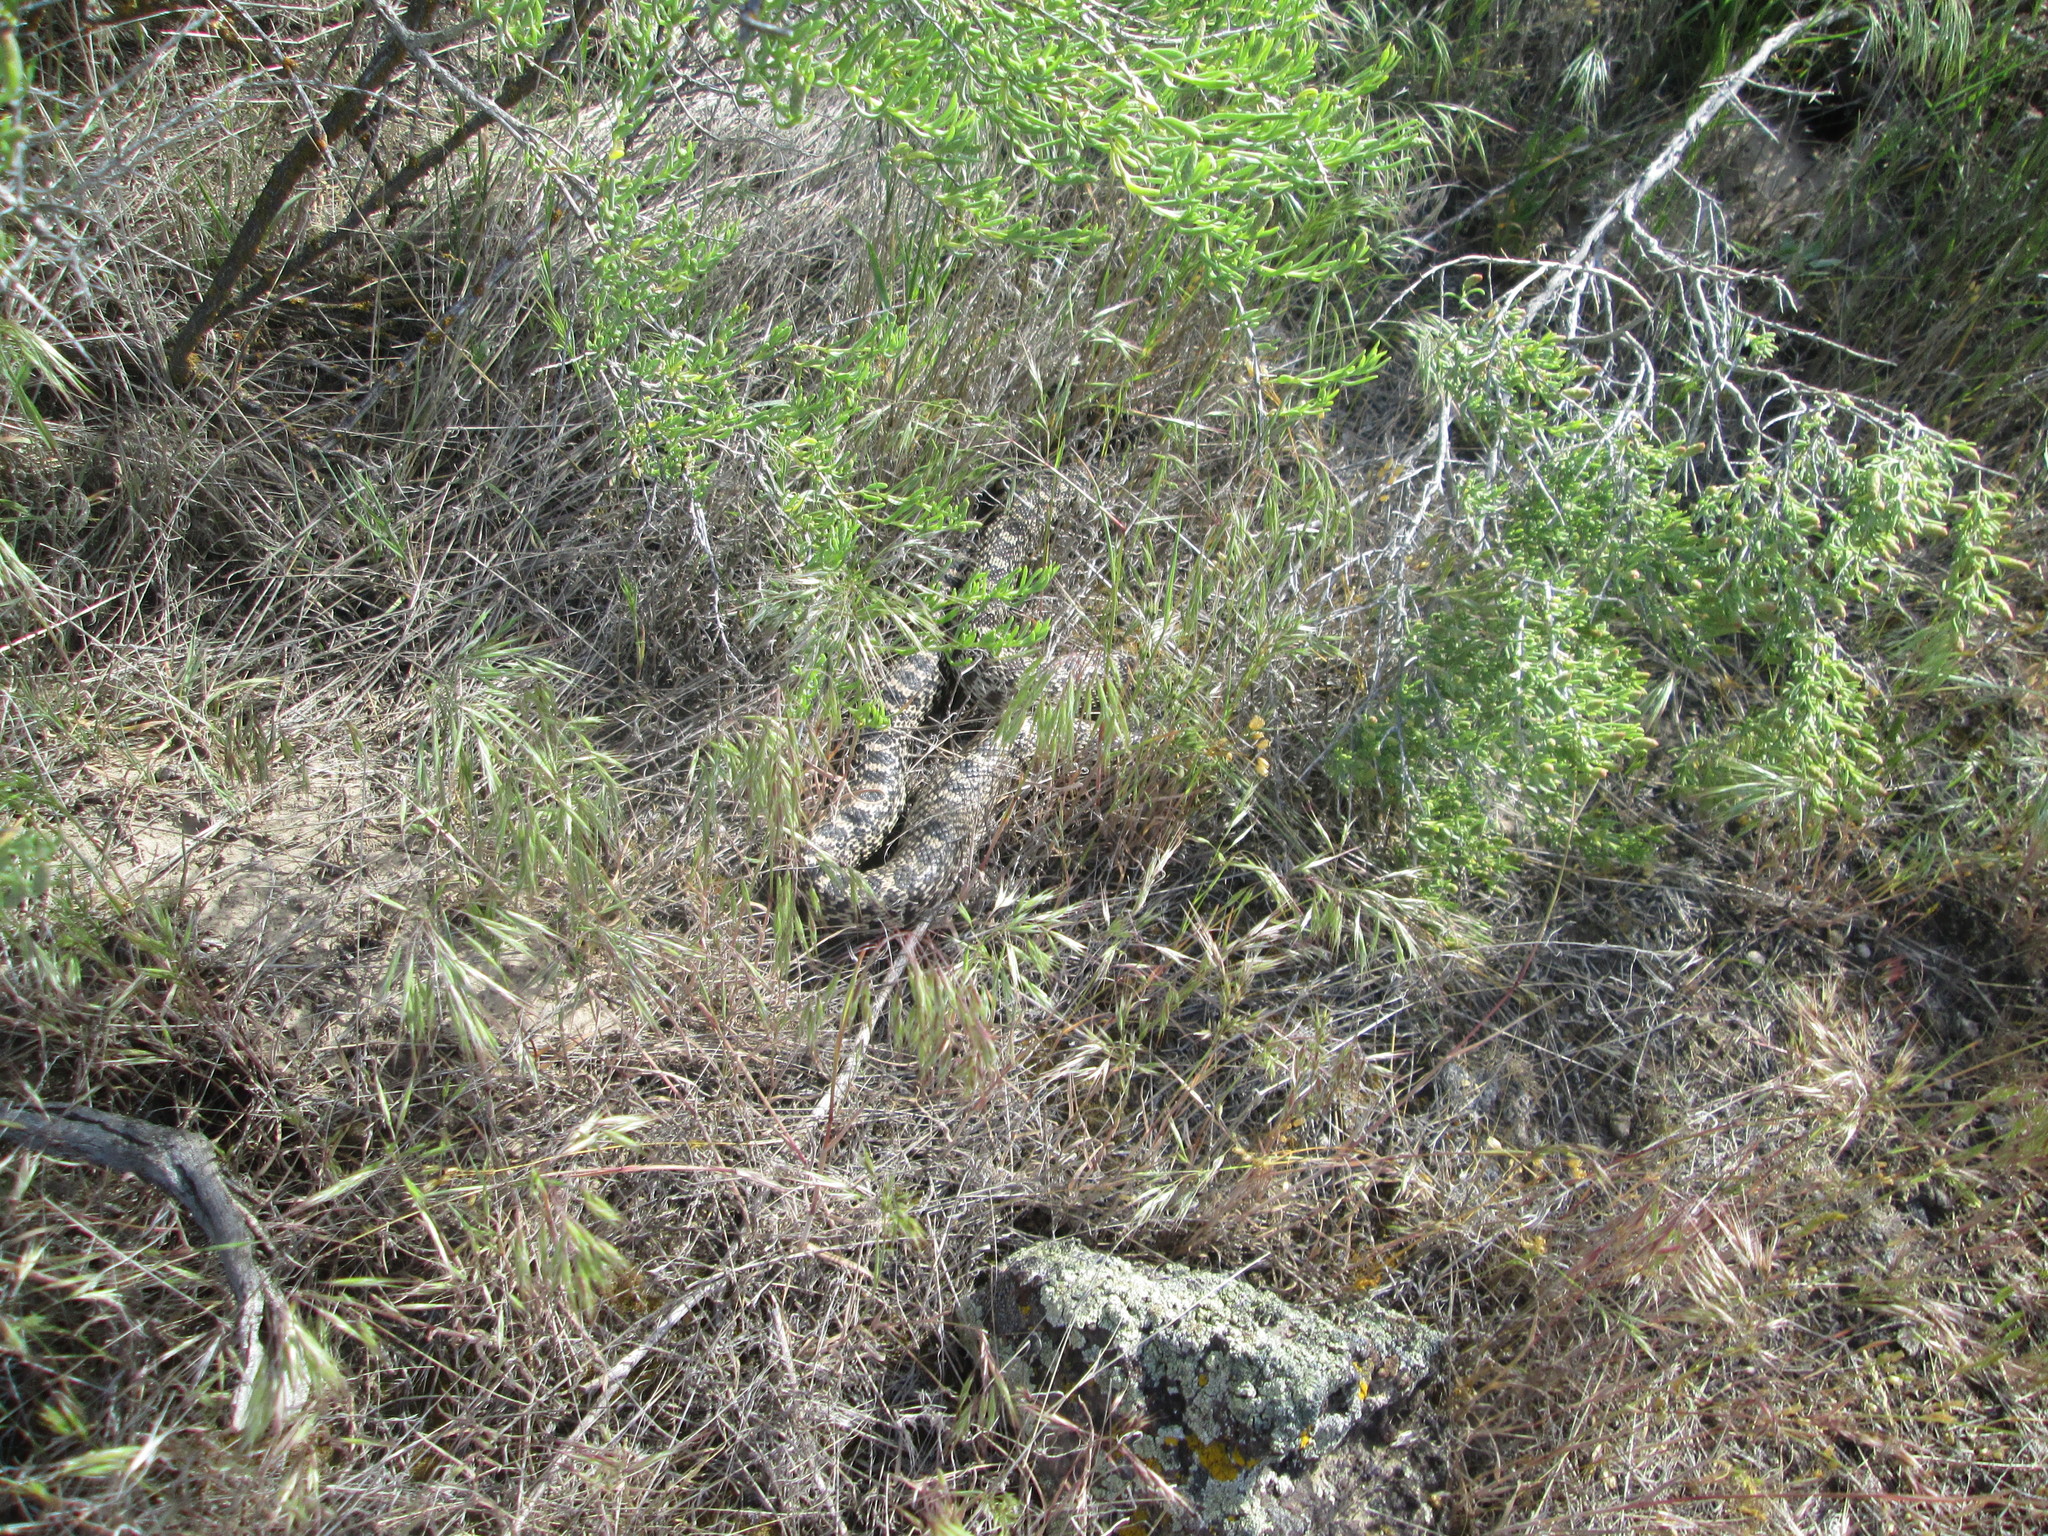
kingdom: Animalia
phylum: Chordata
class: Squamata
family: Colubridae
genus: Pituophis
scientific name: Pituophis catenifer
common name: Gopher snake
